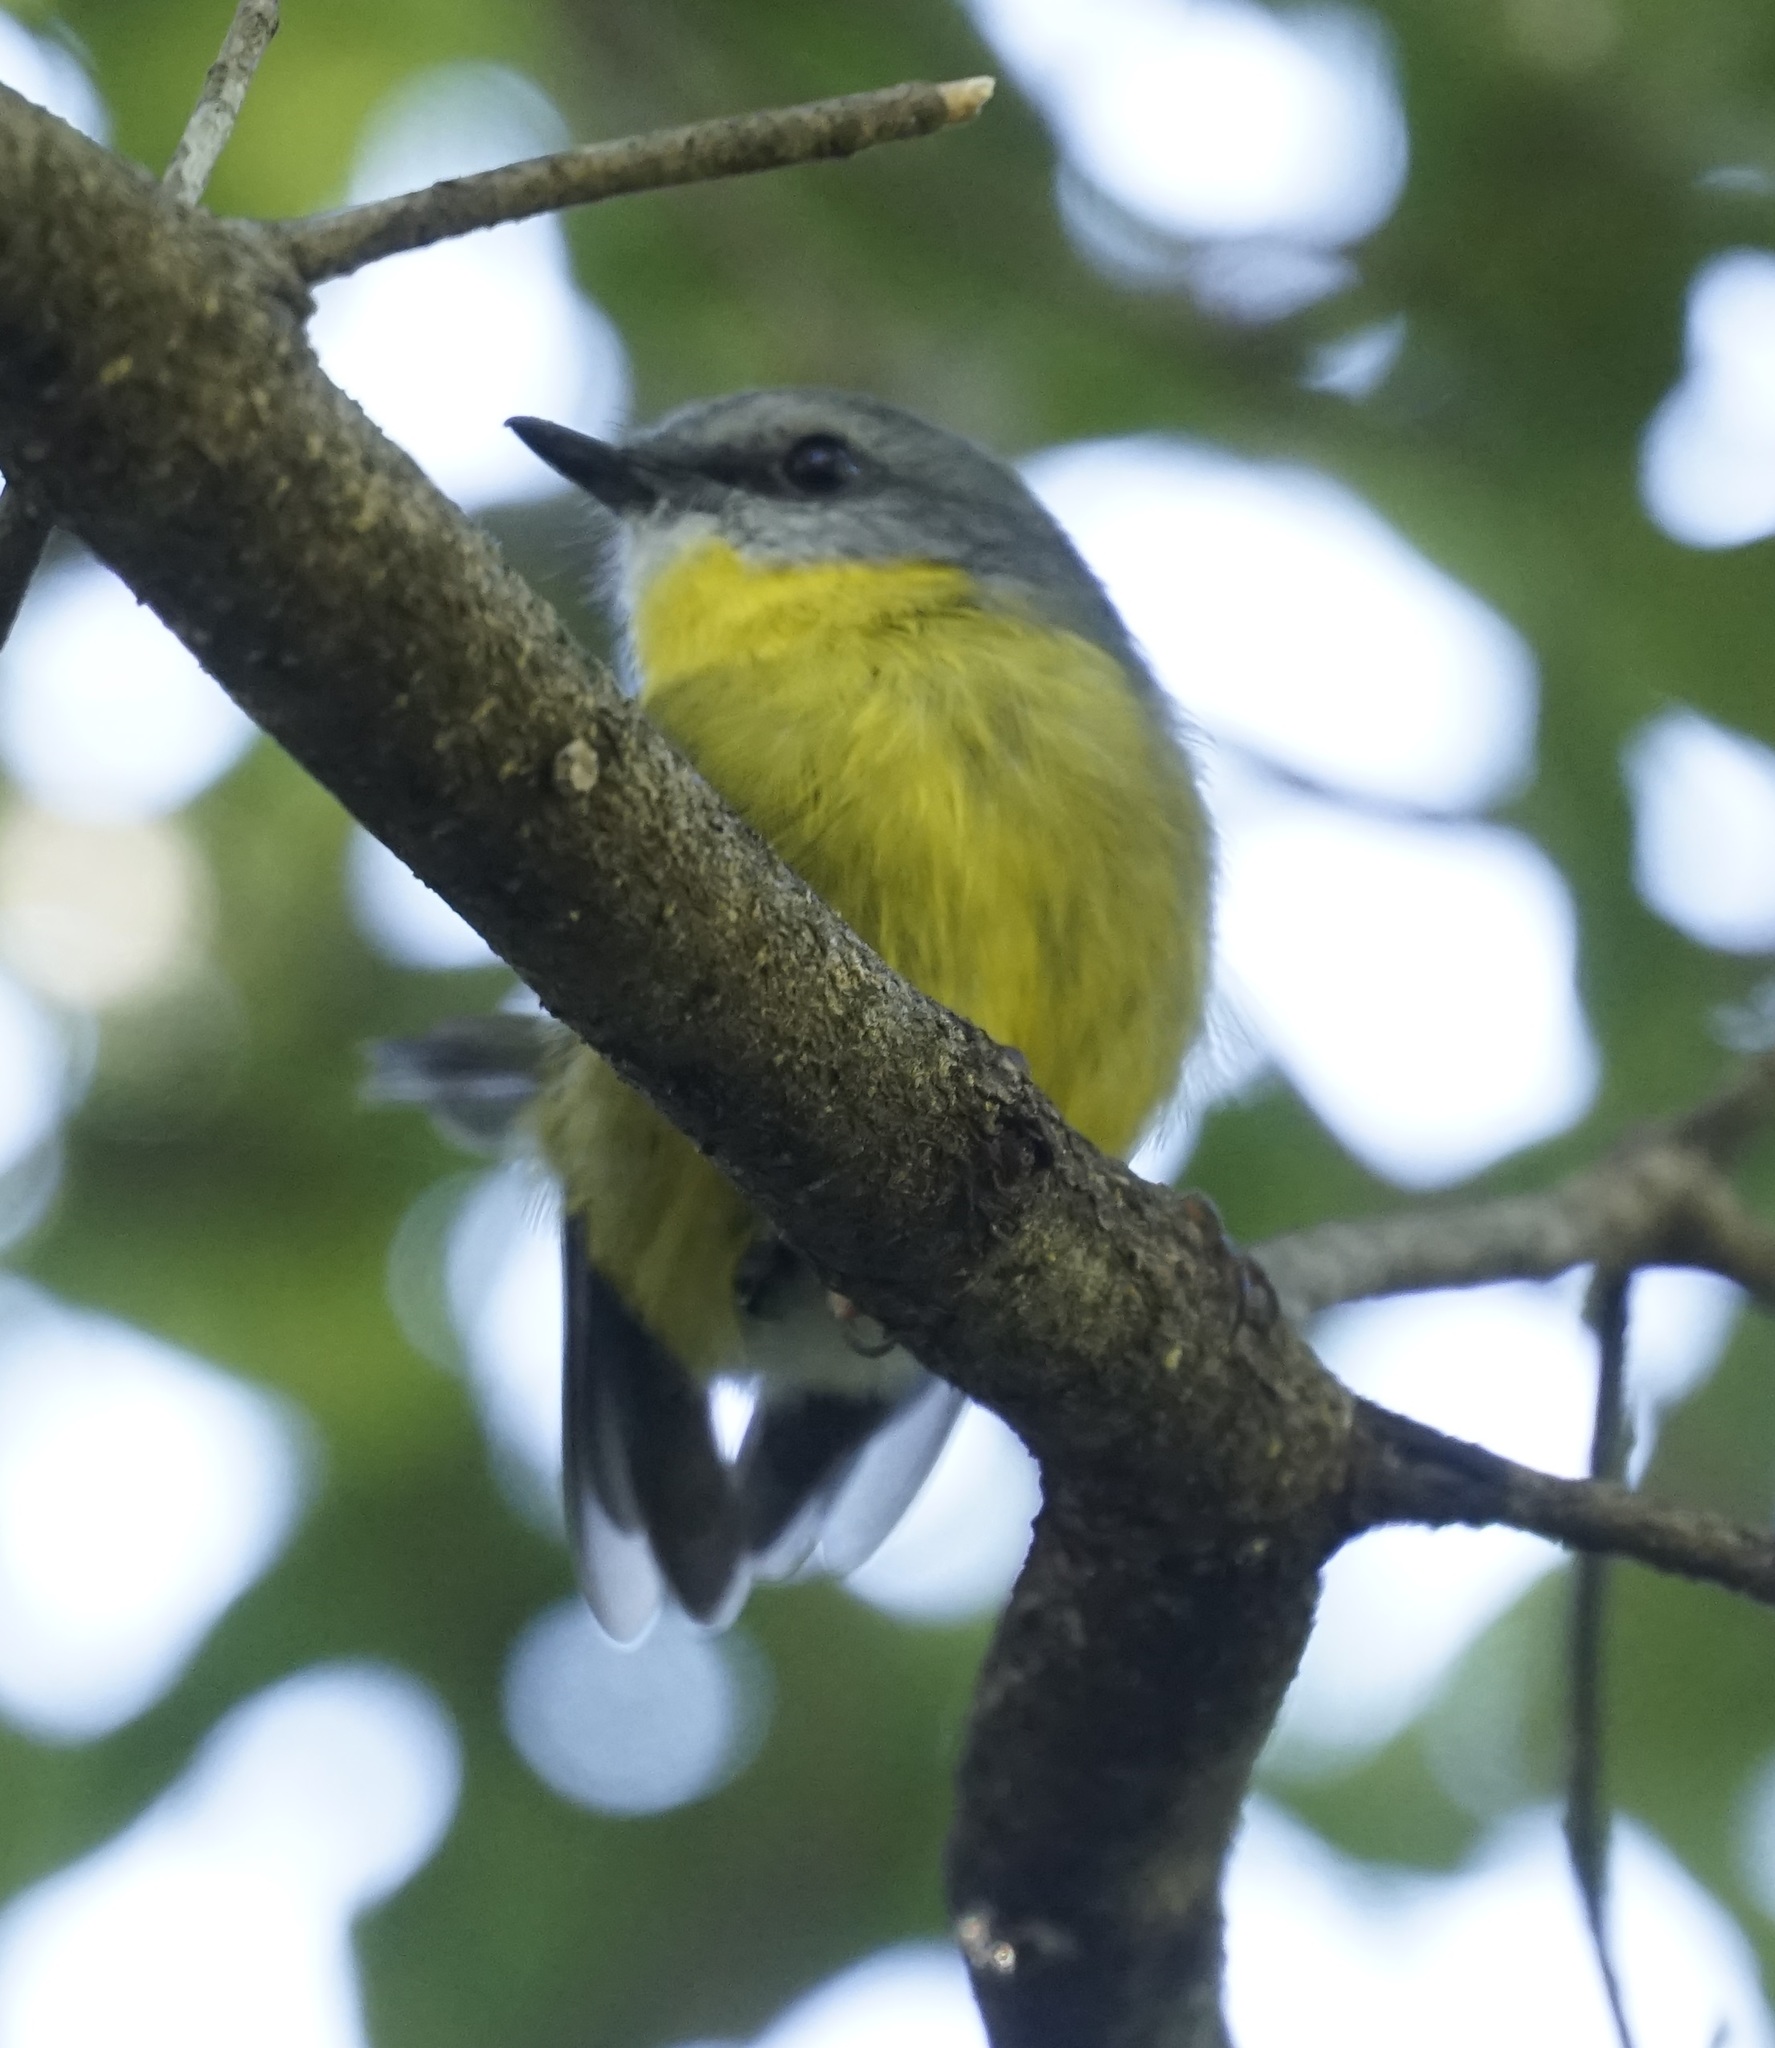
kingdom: Animalia
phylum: Chordata
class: Aves
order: Passeriformes
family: Petroicidae
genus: Eopsaltria
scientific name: Eopsaltria australis
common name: Eastern yellow robin
